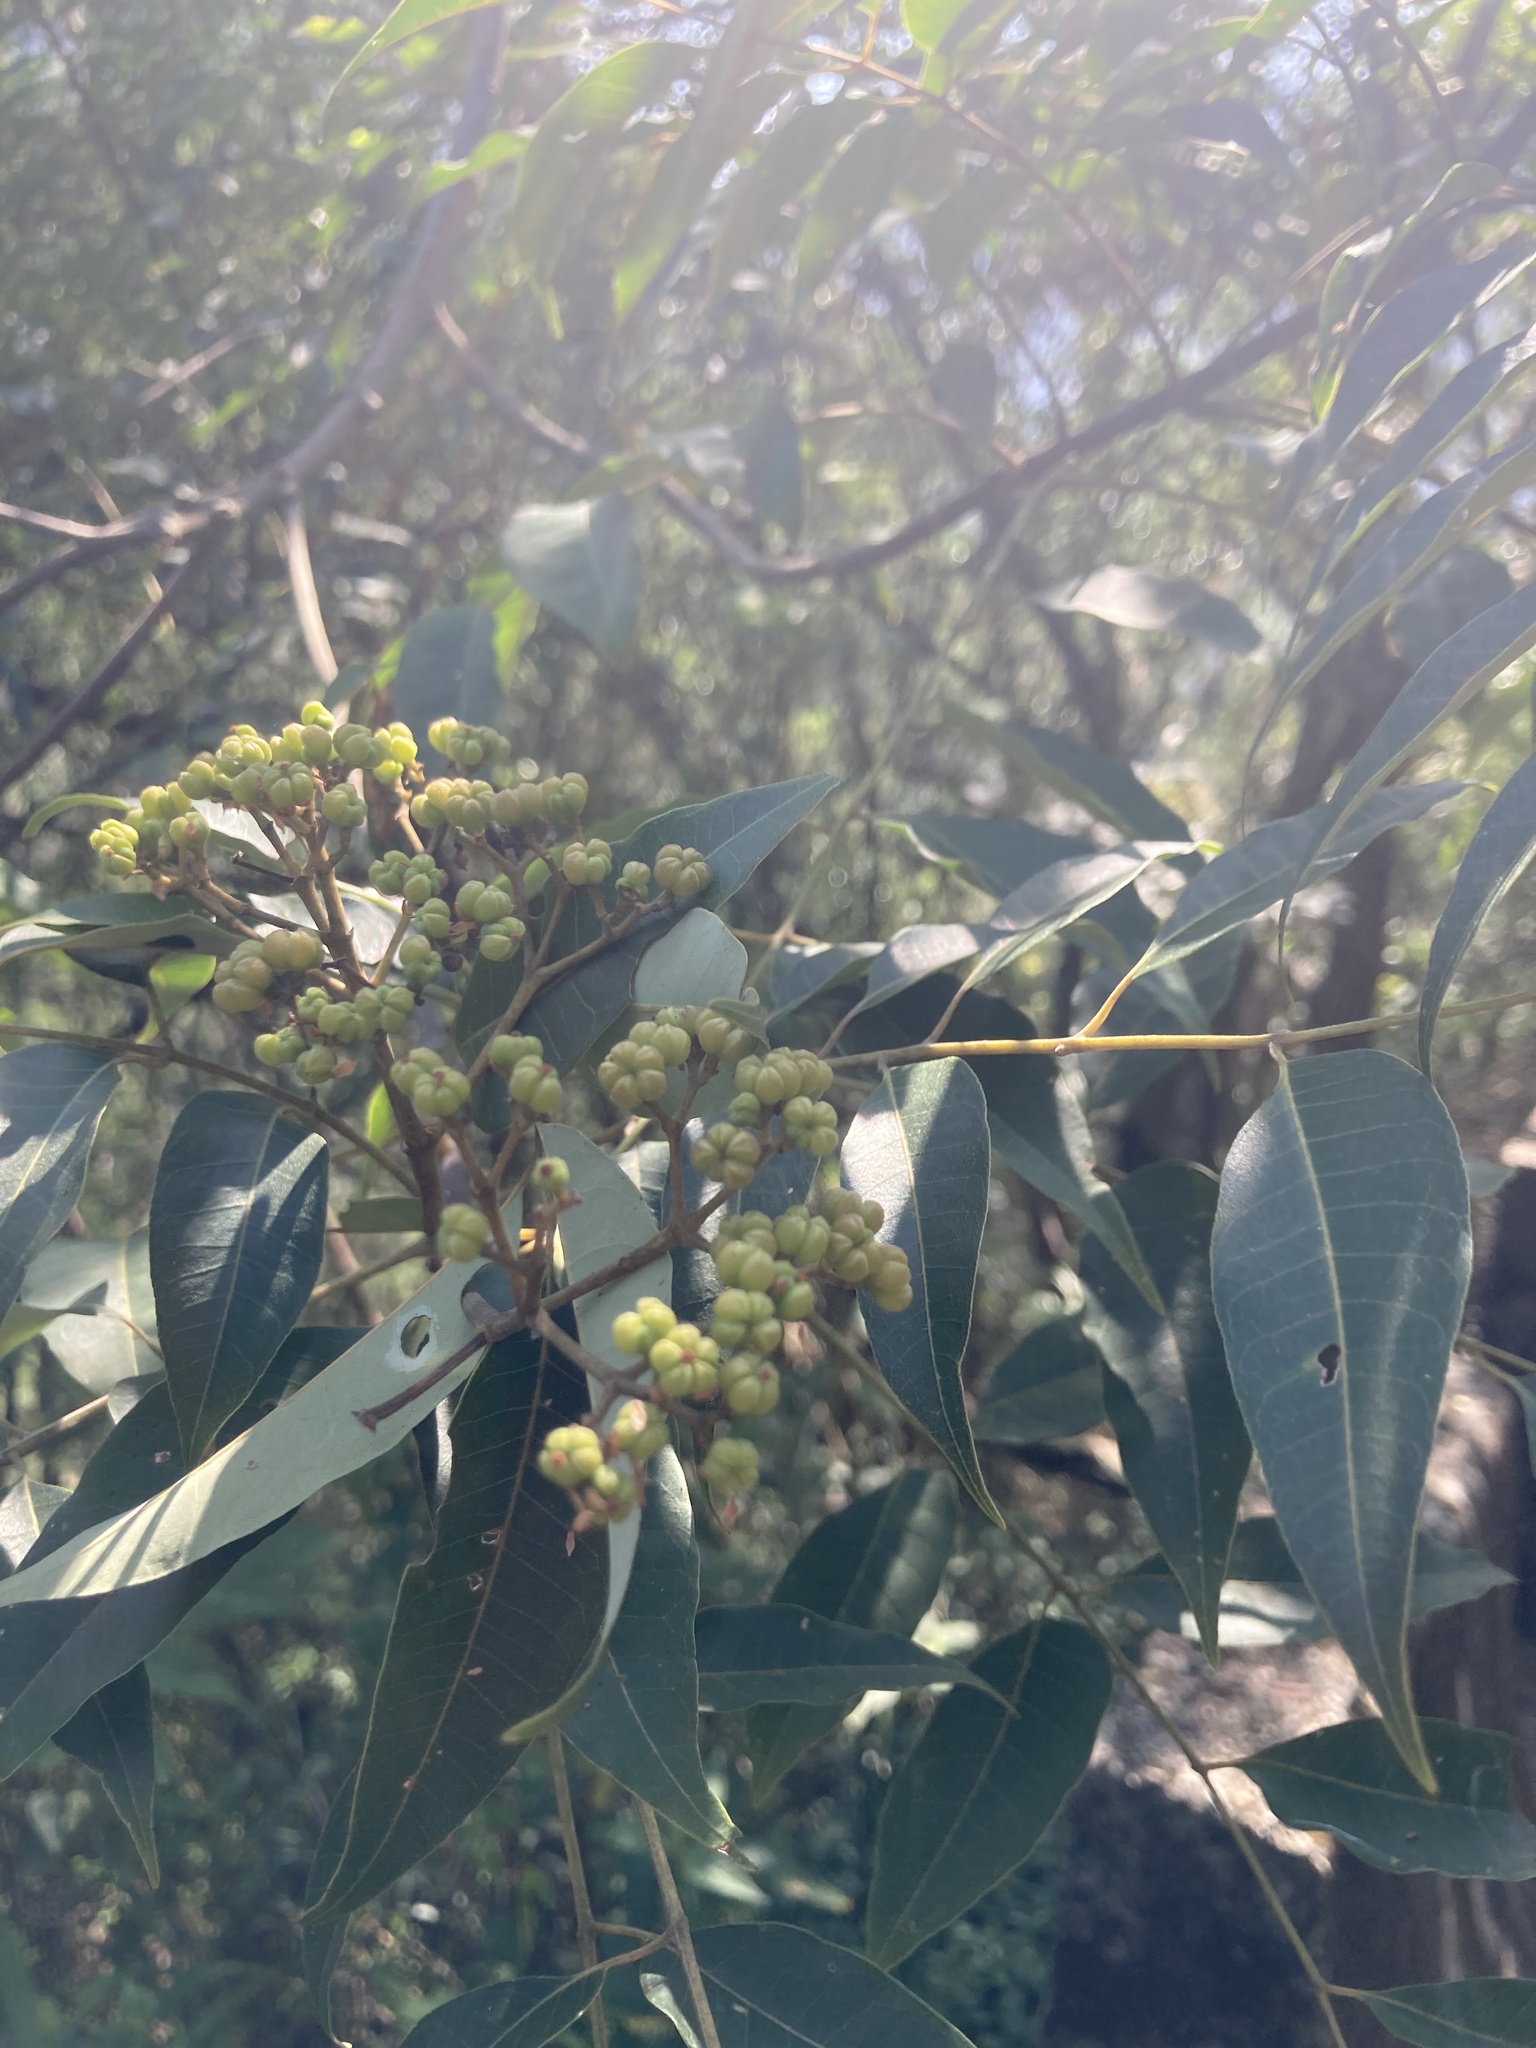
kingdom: Plantae
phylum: Tracheophyta
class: Magnoliopsida
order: Sapindales
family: Rutaceae
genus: Tetradium
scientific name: Tetradium glabrifolium
